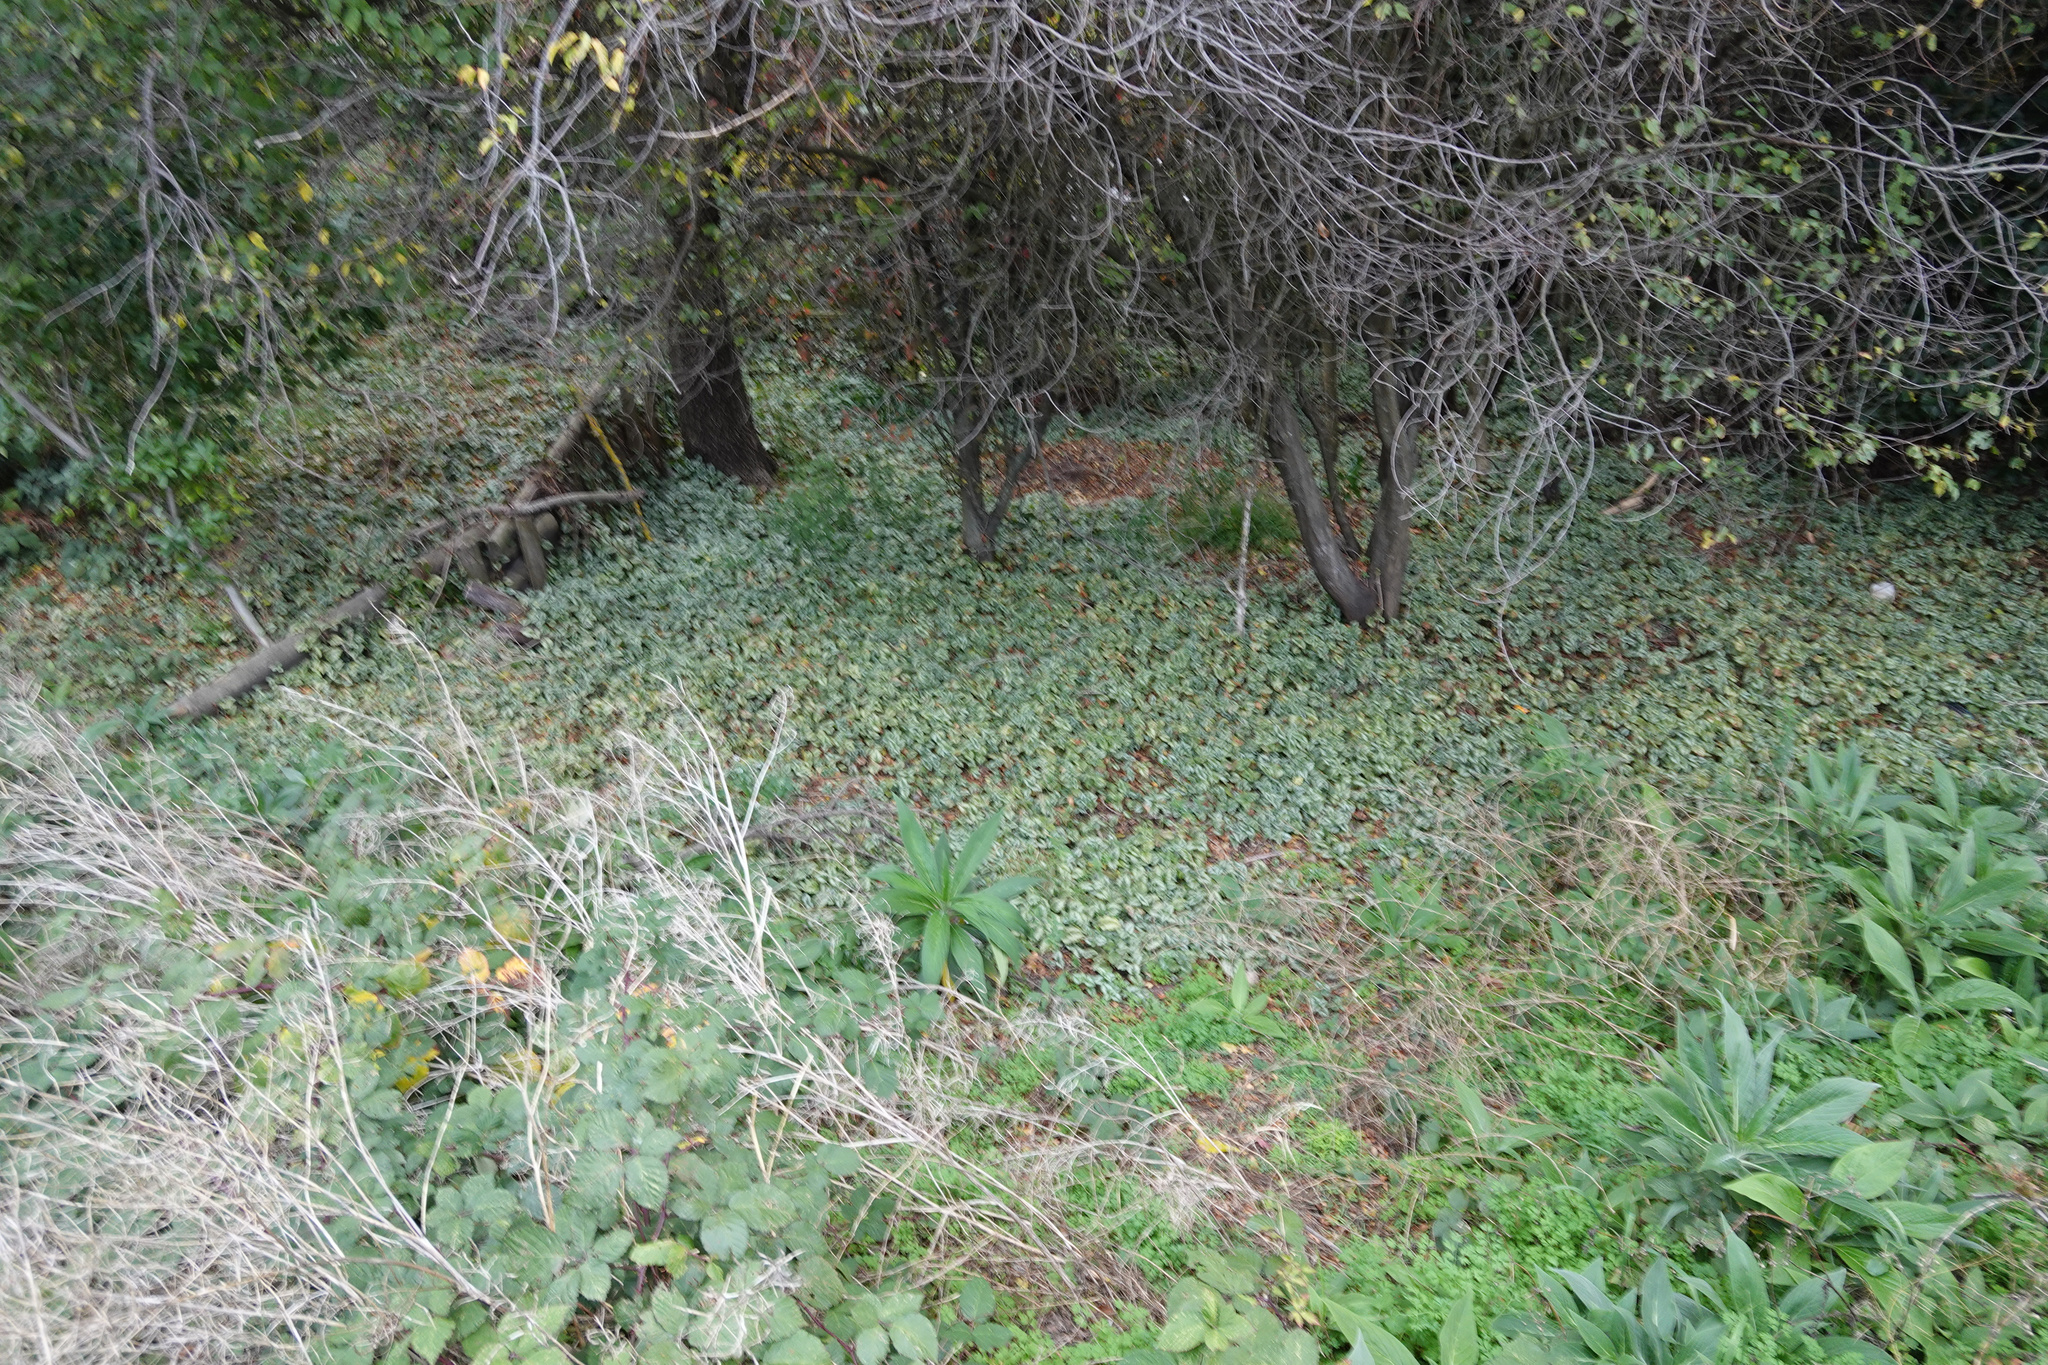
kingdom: Plantae
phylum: Tracheophyta
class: Magnoliopsida
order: Lamiales
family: Lamiaceae
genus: Lamium
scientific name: Lamium galeobdolon
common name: Yellow archangel
